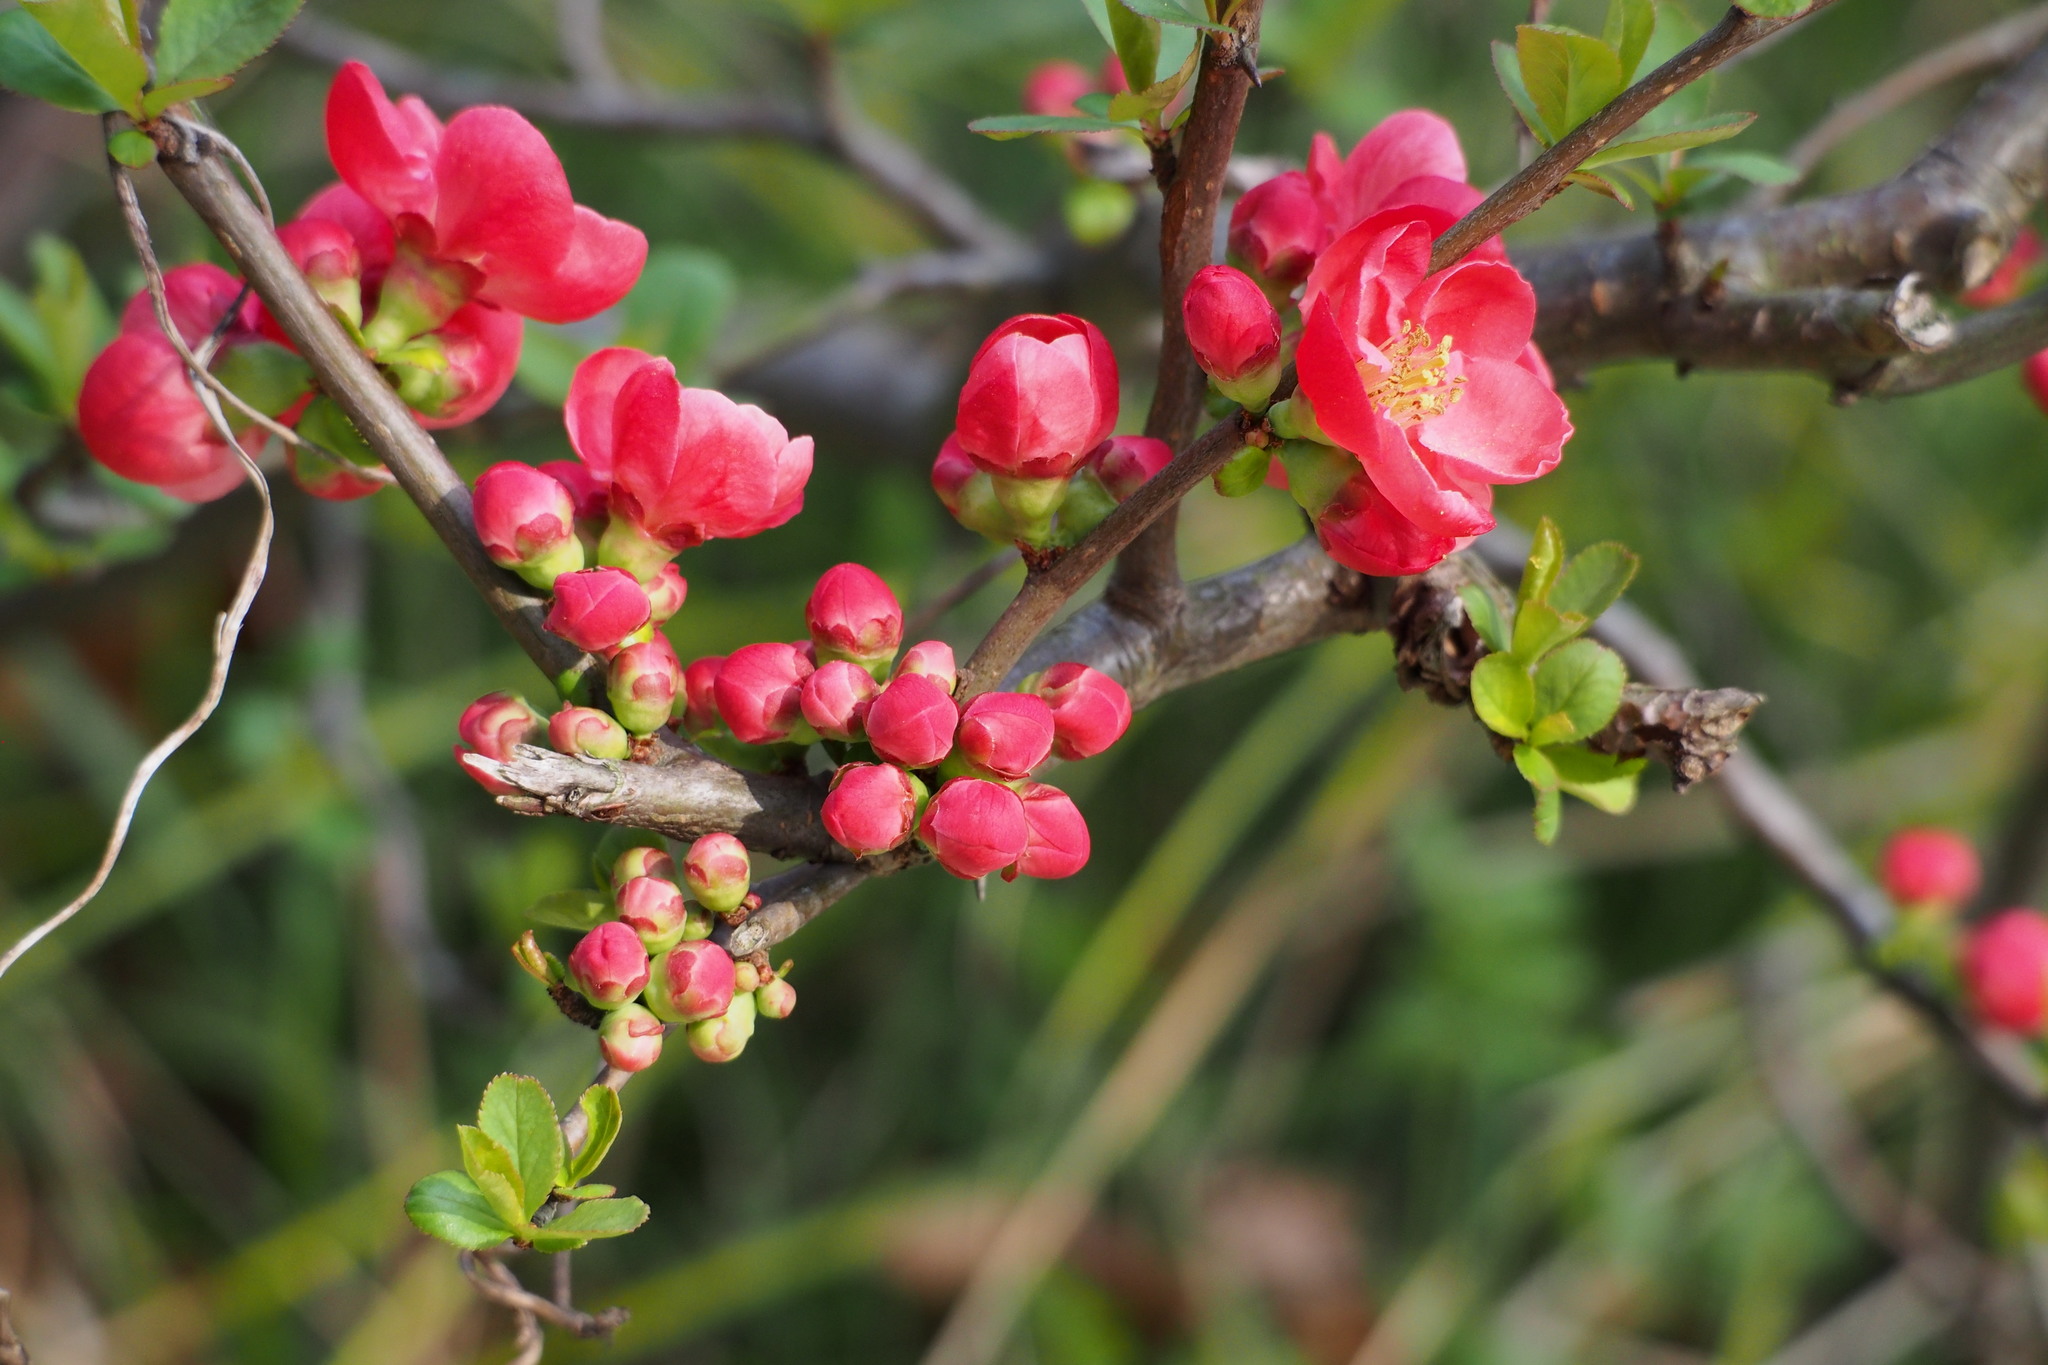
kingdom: Plantae
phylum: Tracheophyta
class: Magnoliopsida
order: Rosales
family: Rosaceae
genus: Chaenomeles
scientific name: Chaenomeles speciosa
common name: Japanese quince
